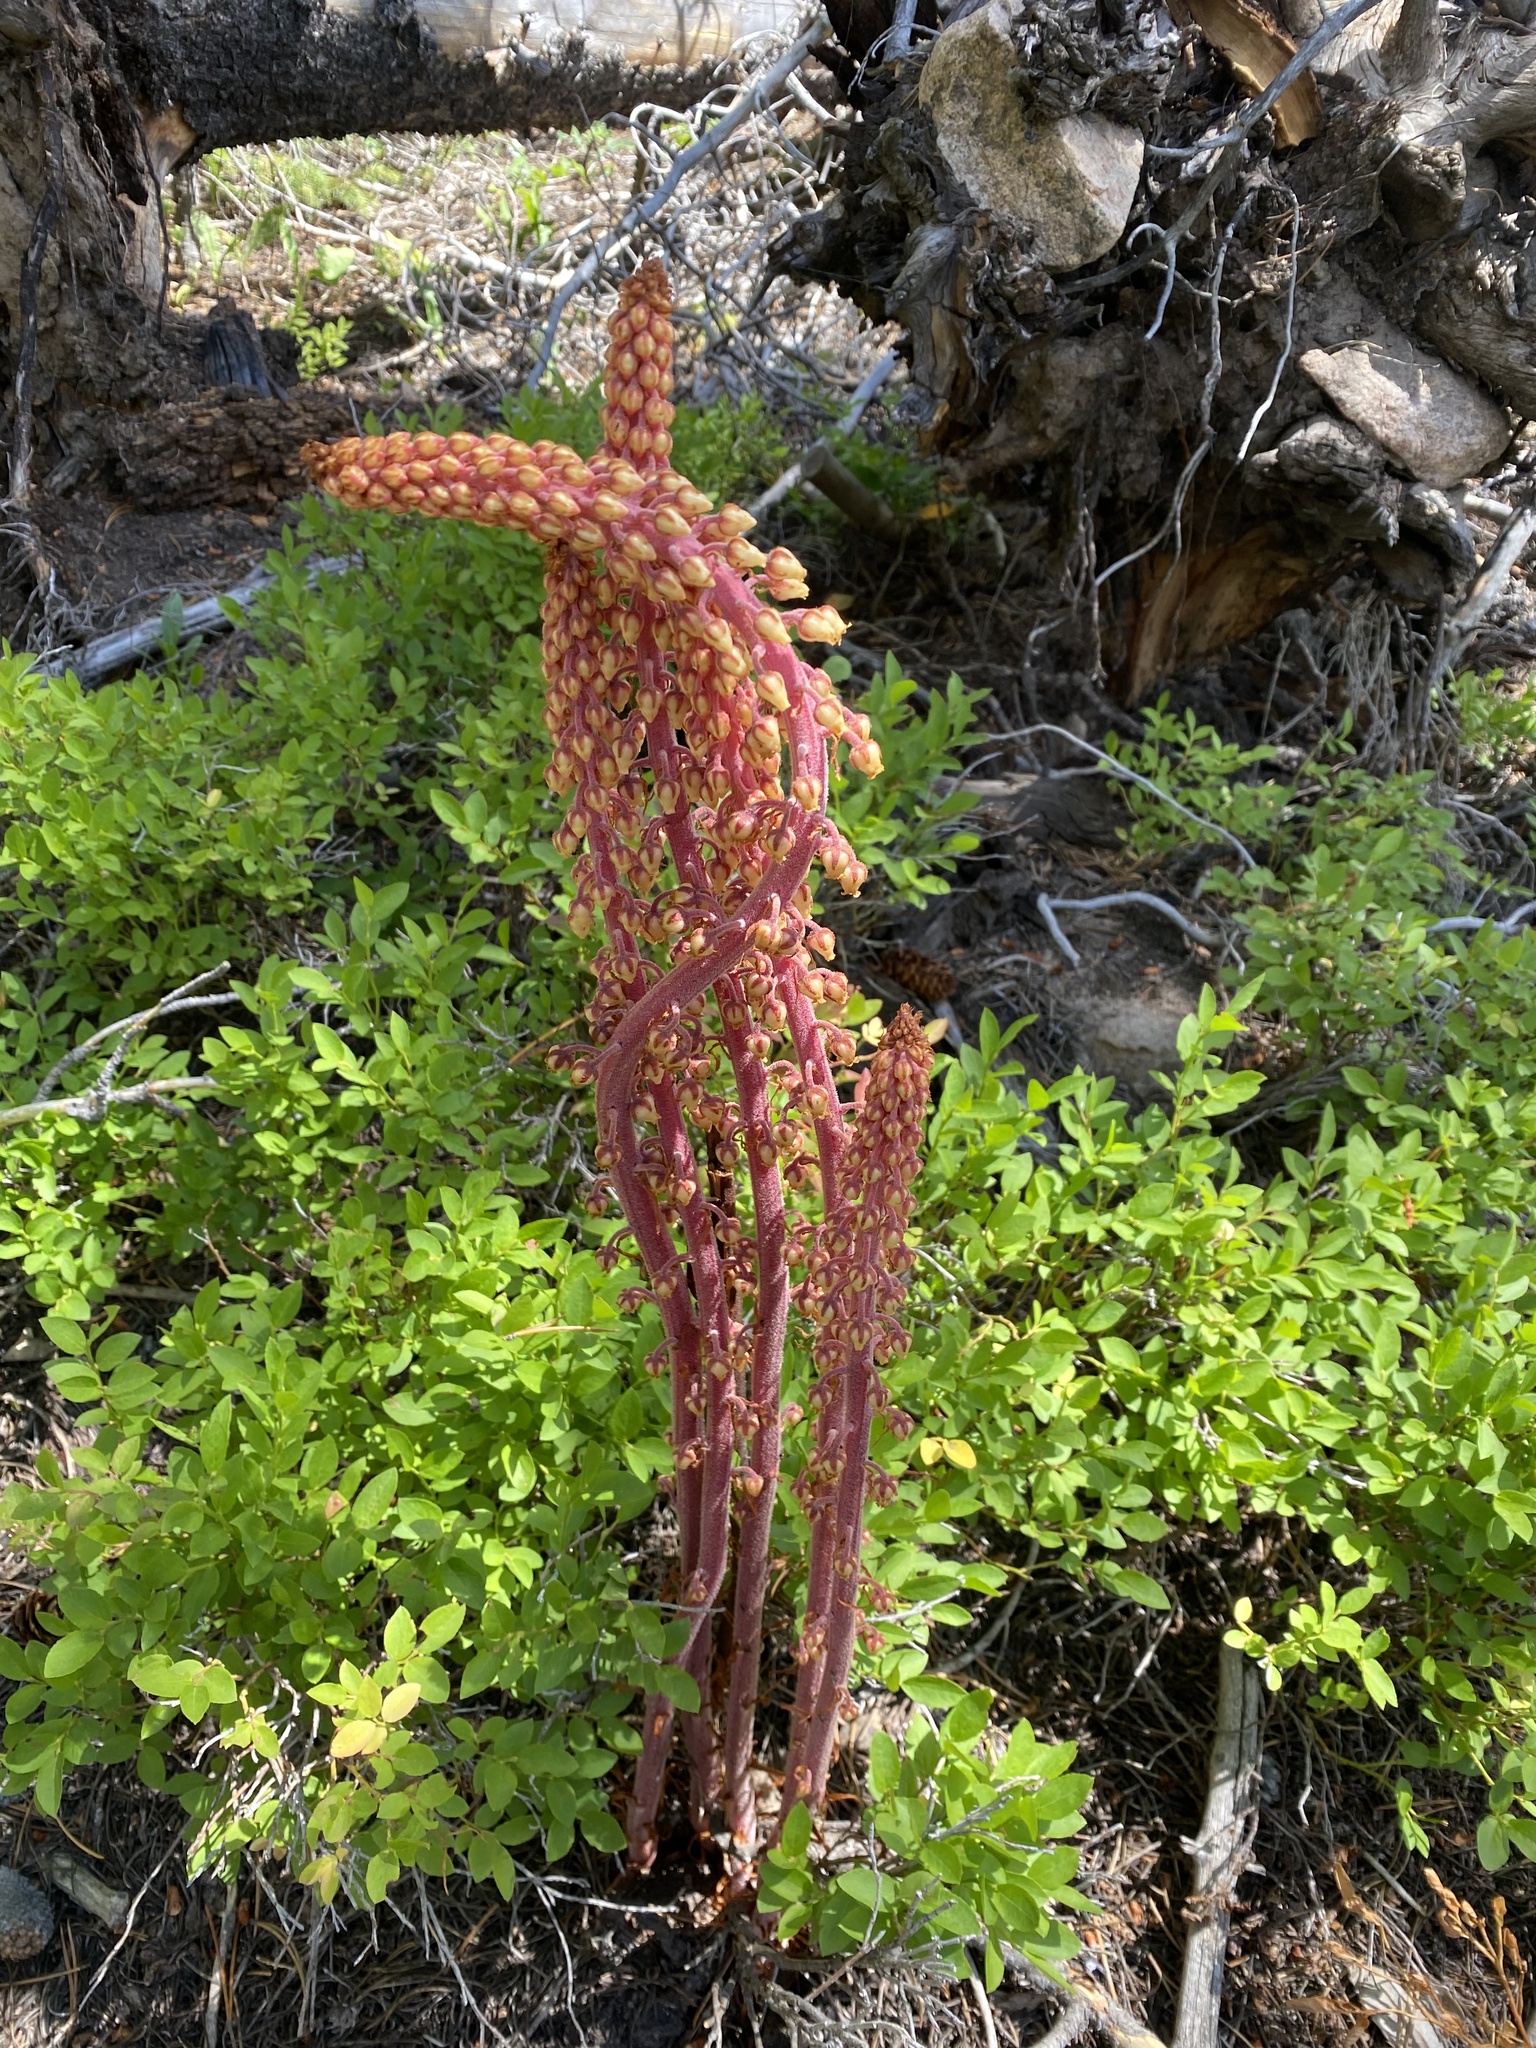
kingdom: Plantae
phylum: Tracheophyta
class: Magnoliopsida
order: Ericales
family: Ericaceae
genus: Pterospora
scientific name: Pterospora andromedea
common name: Giant bird's-nest
